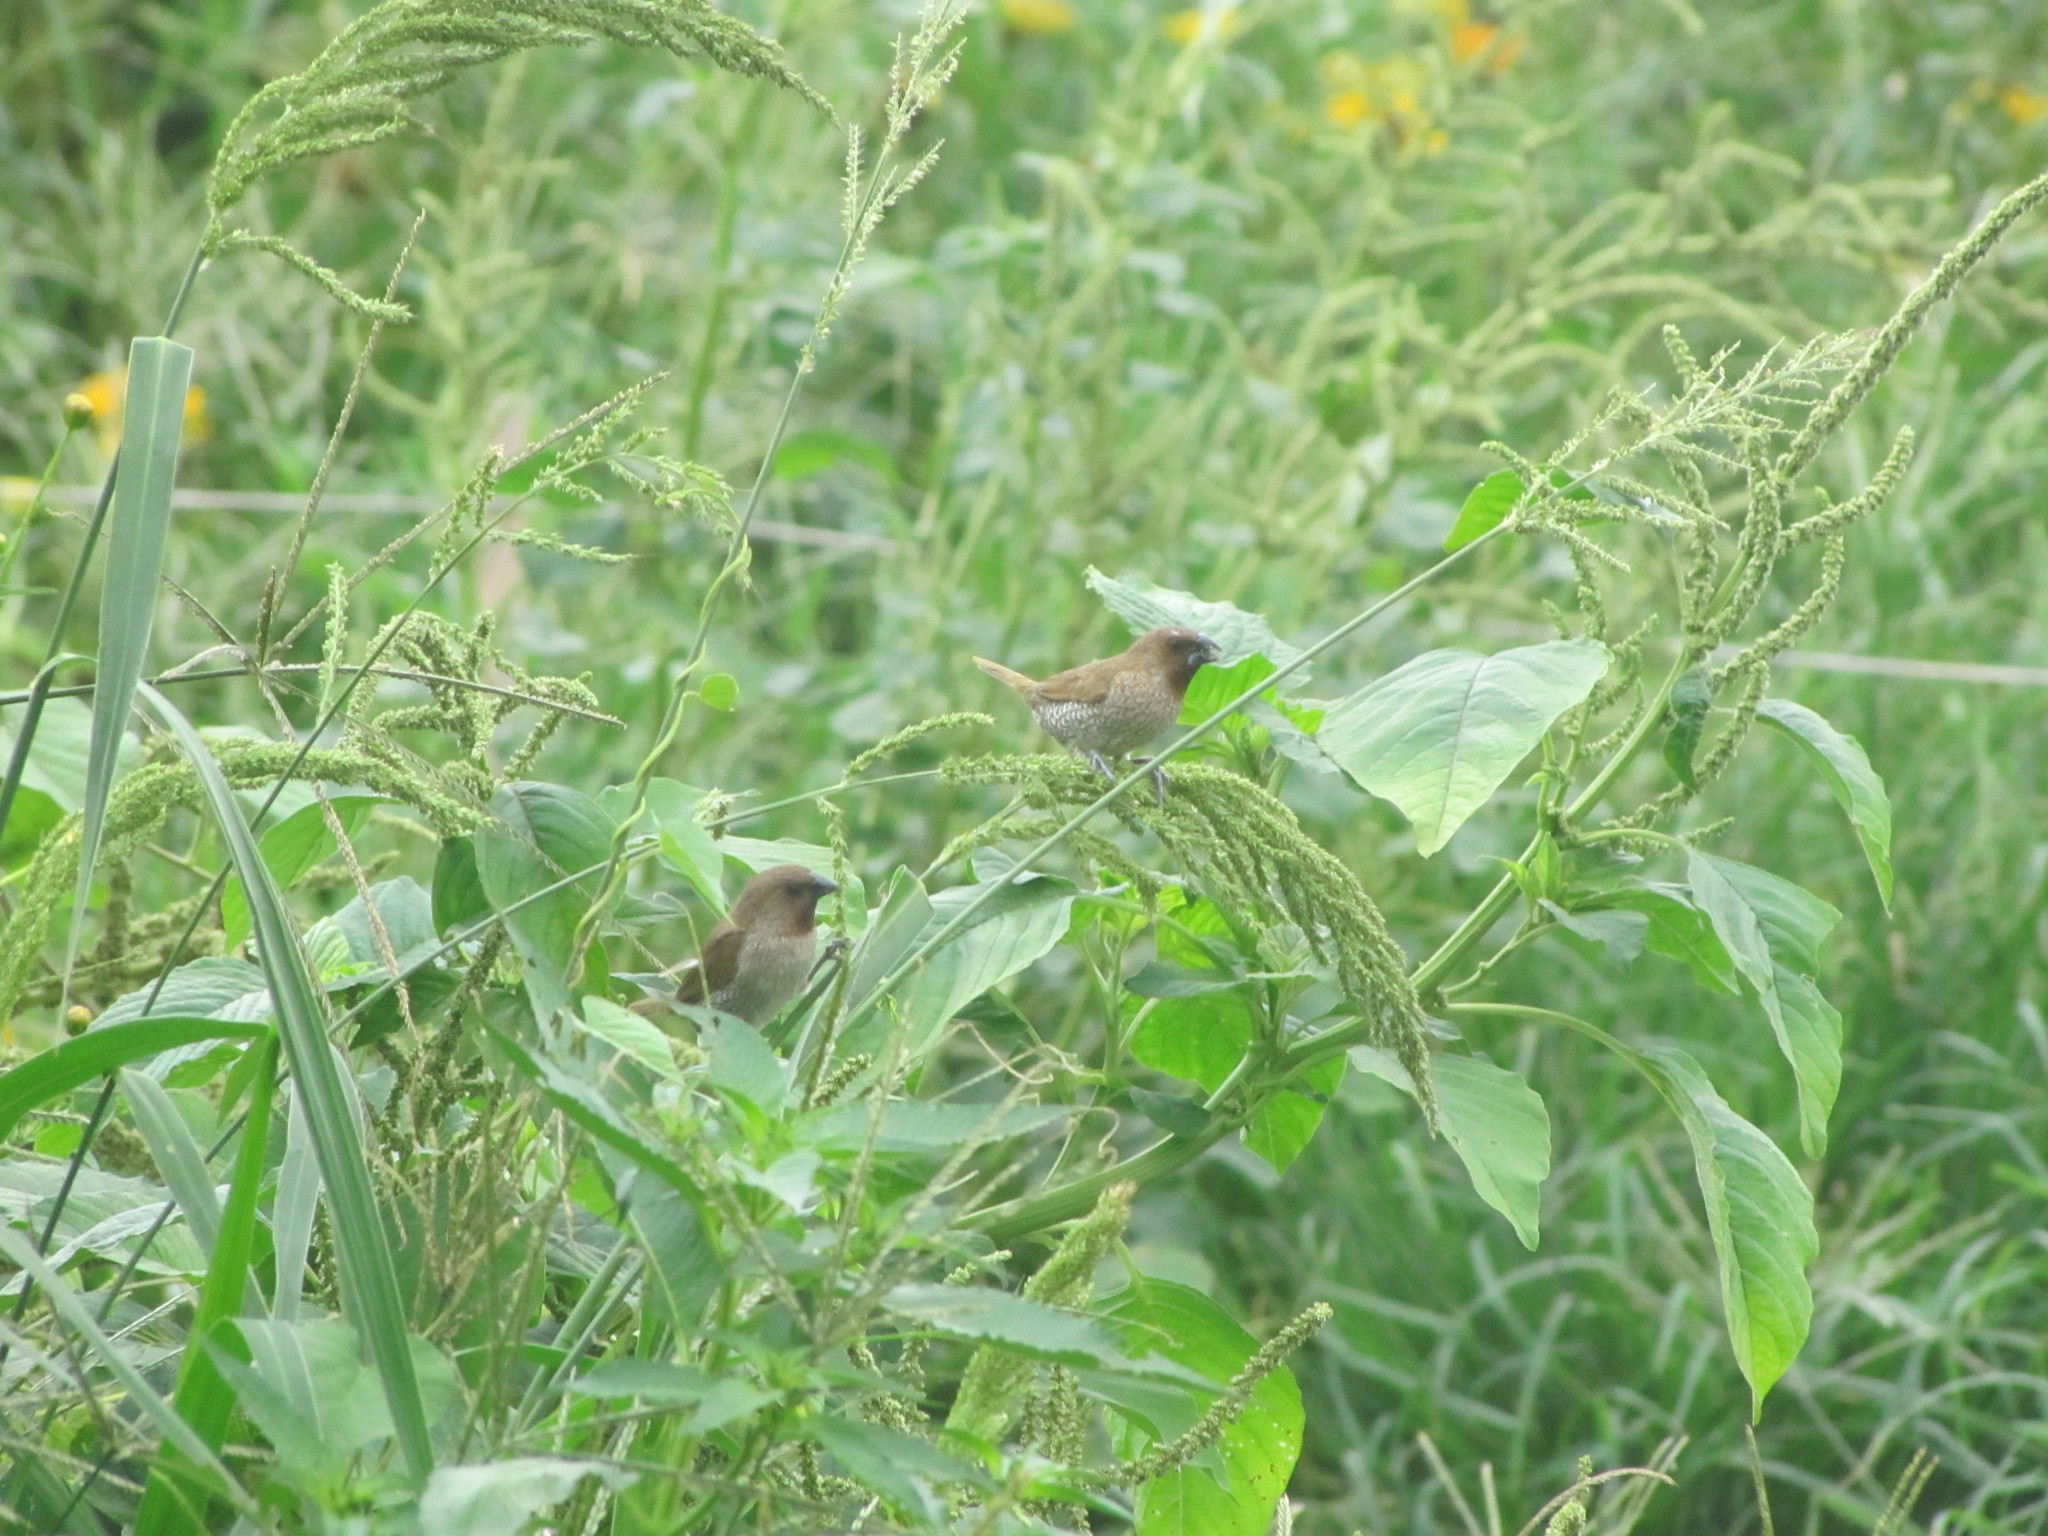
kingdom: Animalia
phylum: Chordata
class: Aves
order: Passeriformes
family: Estrildidae
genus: Lonchura
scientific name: Lonchura punctulata
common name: Scaly-breasted munia
